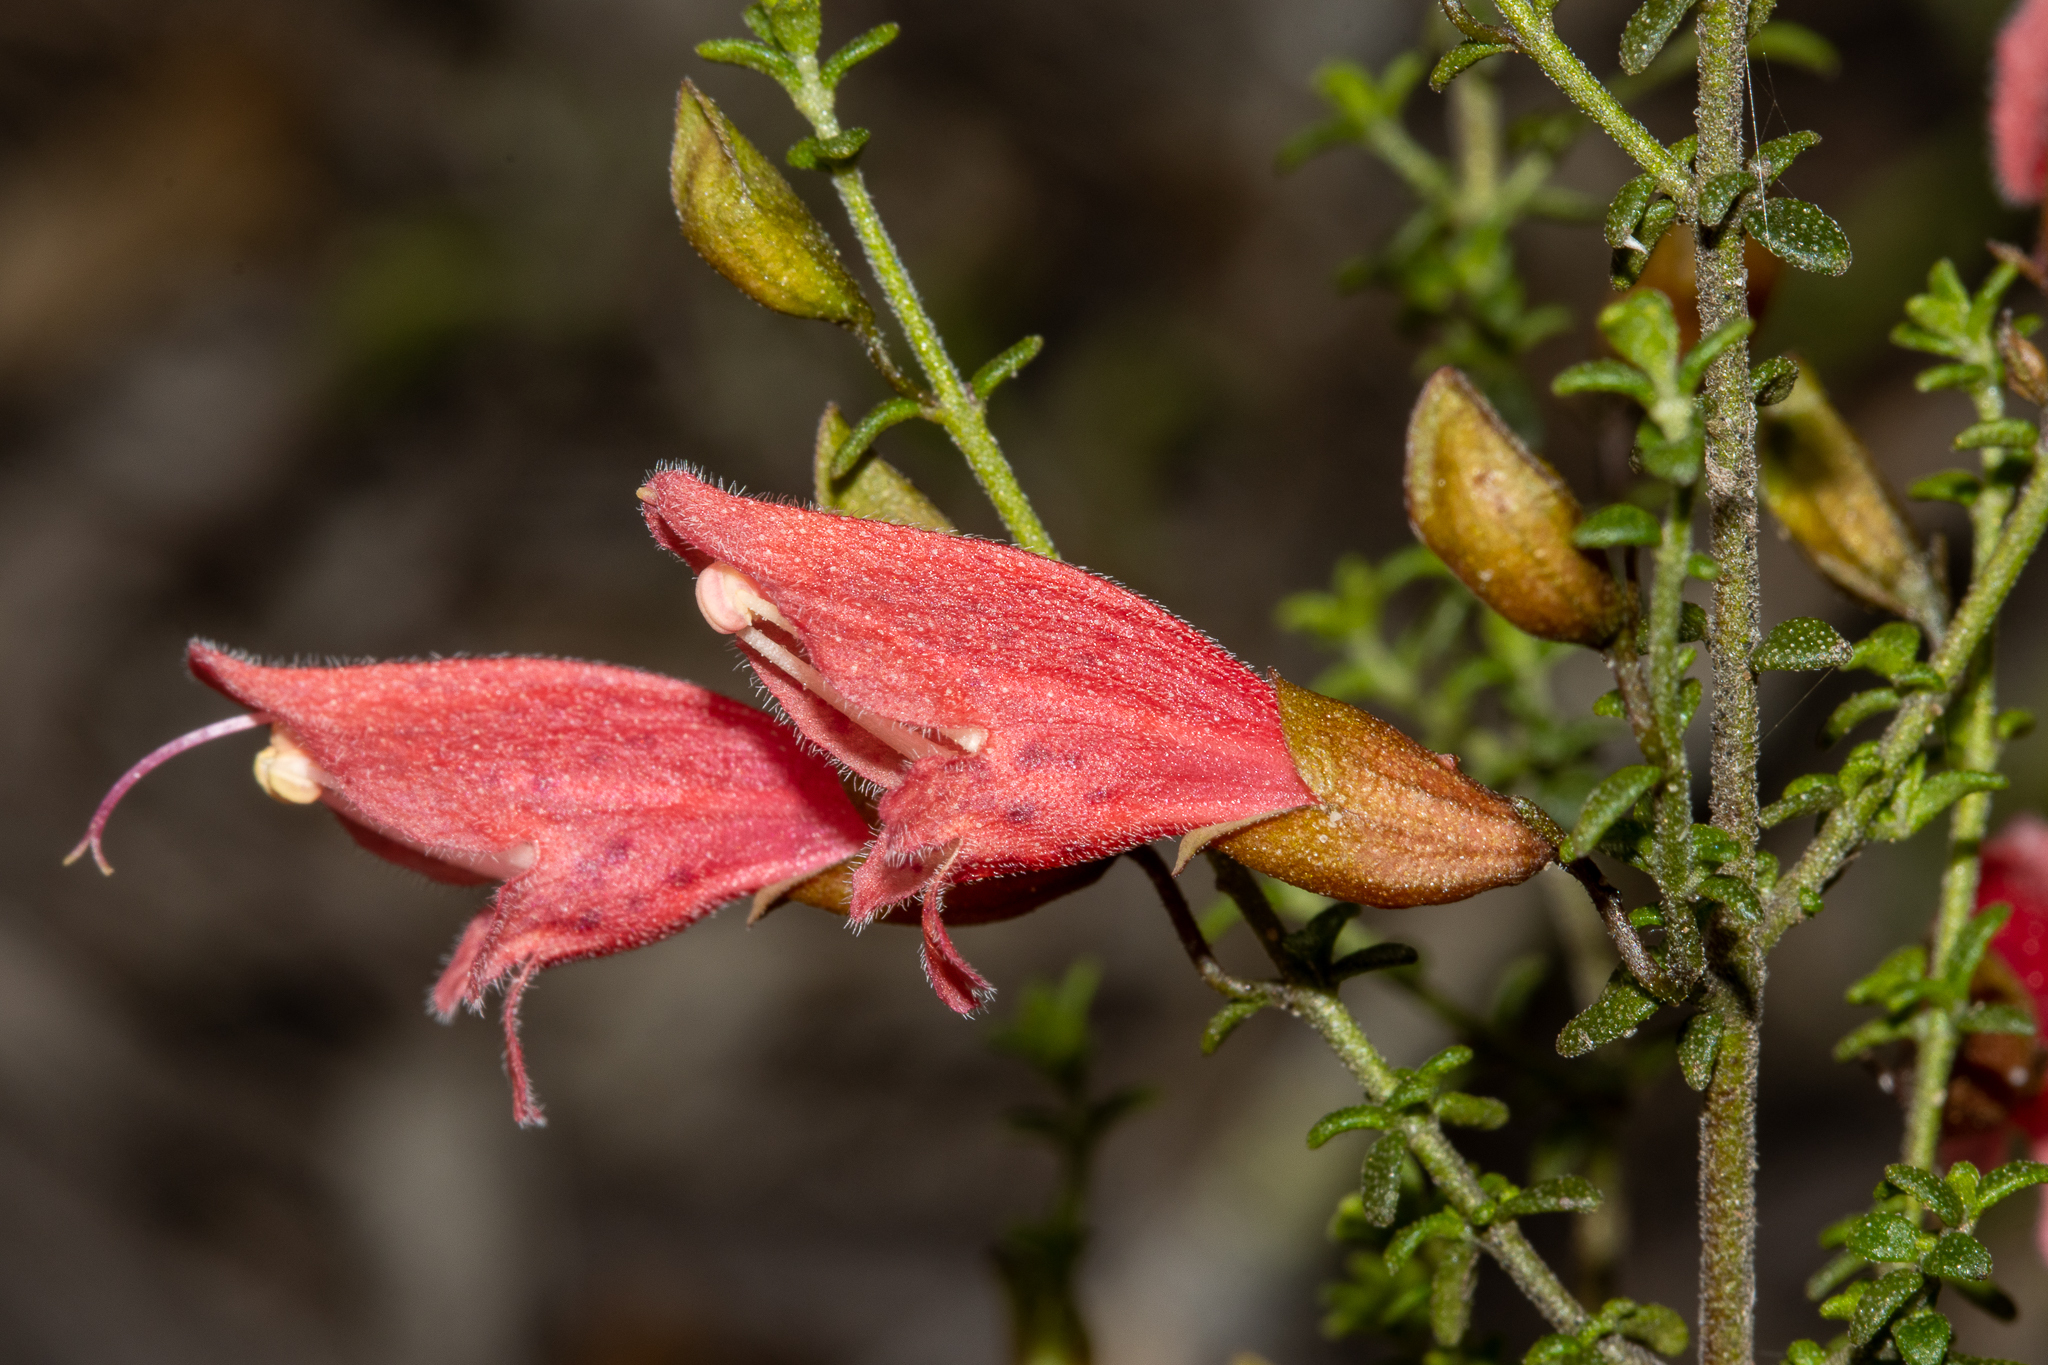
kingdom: Plantae
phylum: Tracheophyta
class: Magnoliopsida
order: Lamiales
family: Lamiaceae
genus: Prostanthera
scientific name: Prostanthera serpyllifolia
